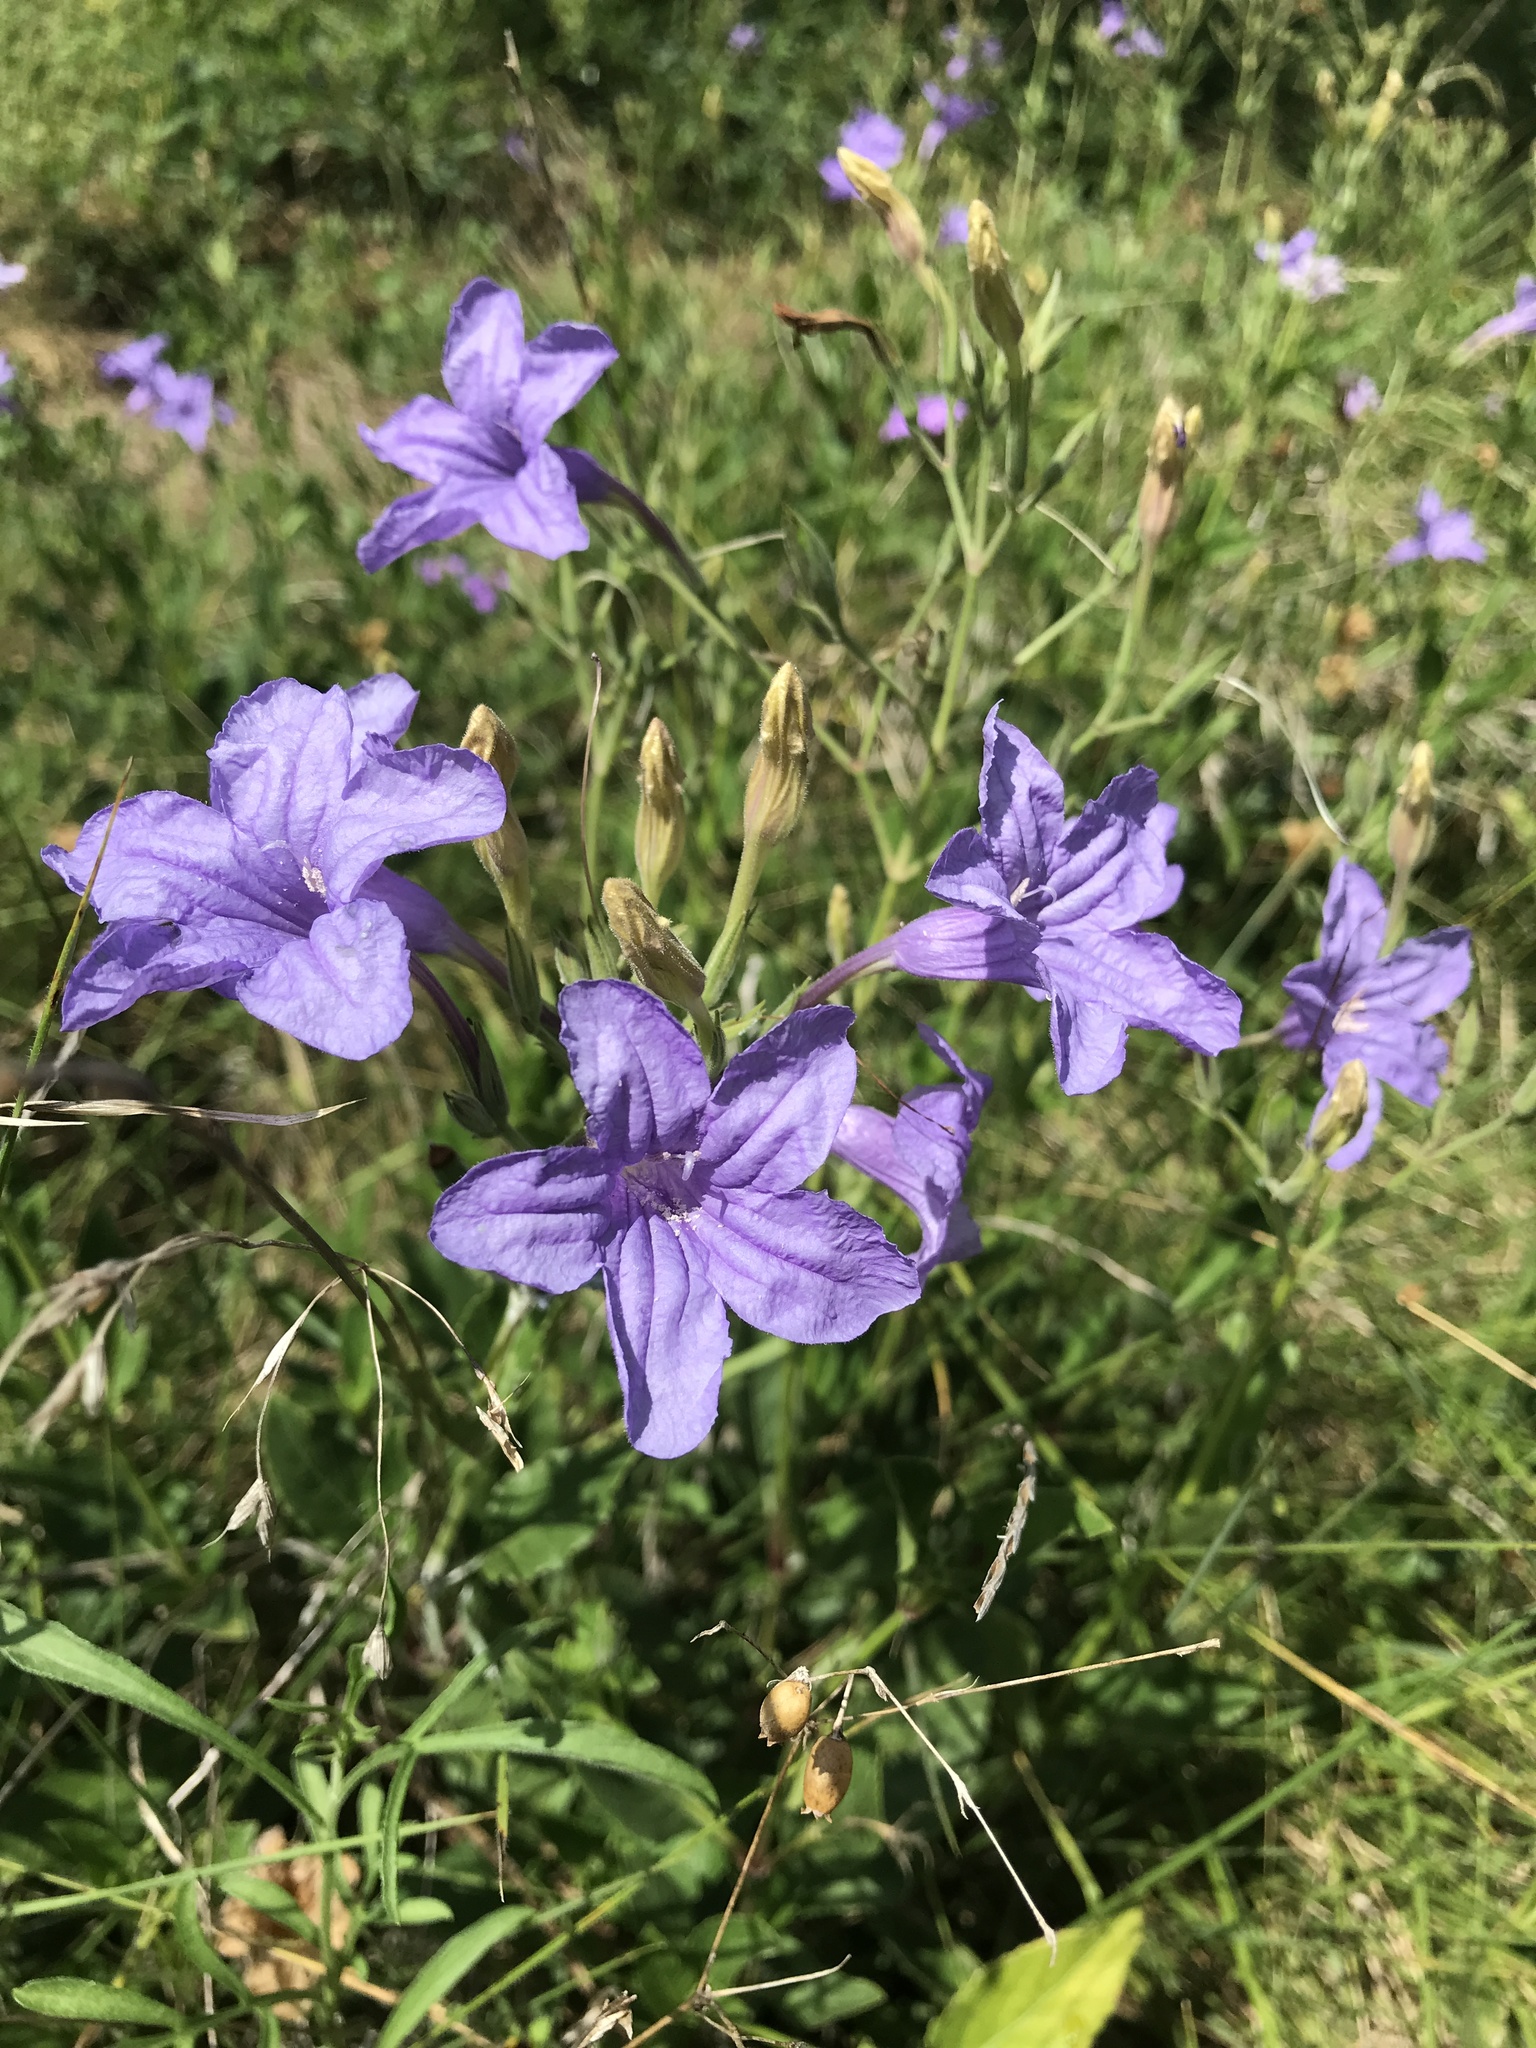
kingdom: Plantae
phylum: Tracheophyta
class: Magnoliopsida
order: Lamiales
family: Acanthaceae
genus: Ruellia
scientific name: Ruellia ciliatiflora
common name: Hairyflower wild petunia
